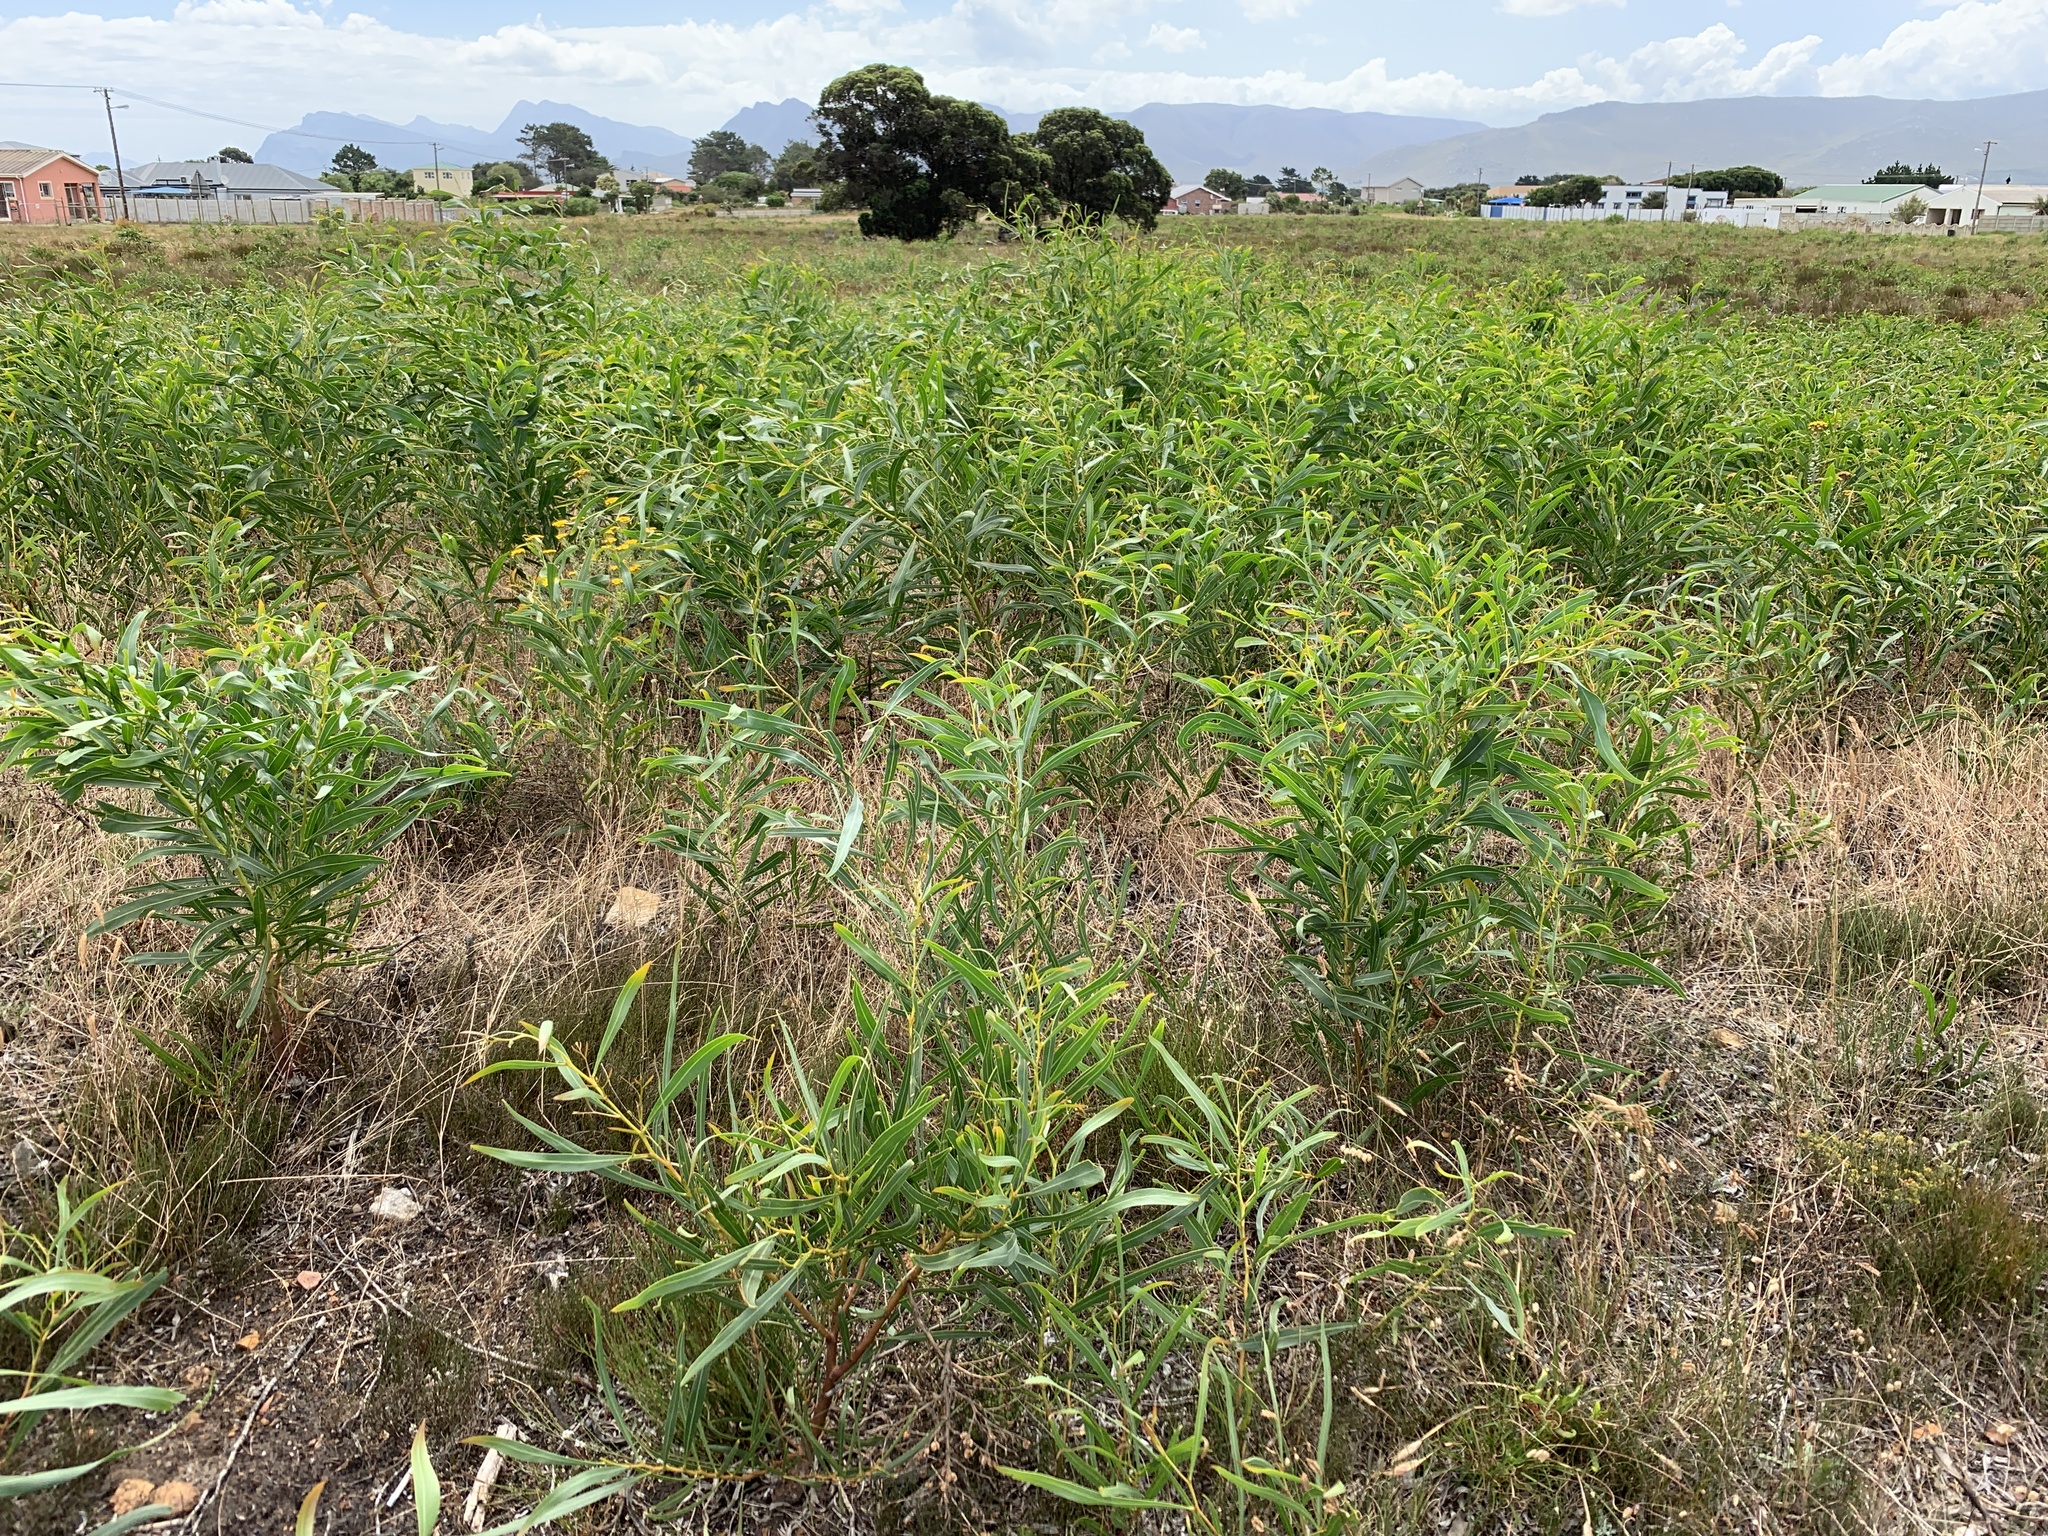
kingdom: Plantae
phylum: Tracheophyta
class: Magnoliopsida
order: Fabales
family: Fabaceae
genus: Acacia
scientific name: Acacia saligna
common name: Orange wattle
